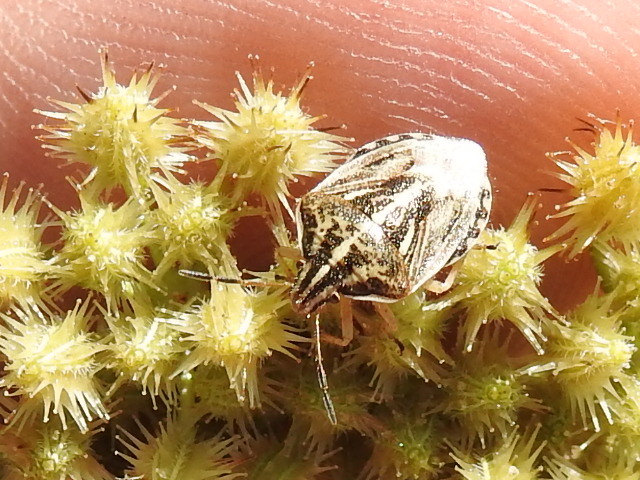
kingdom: Animalia
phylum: Arthropoda
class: Insecta
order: Hemiptera
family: Pentatomidae
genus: Trichopepla
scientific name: Trichopepla semivittata
